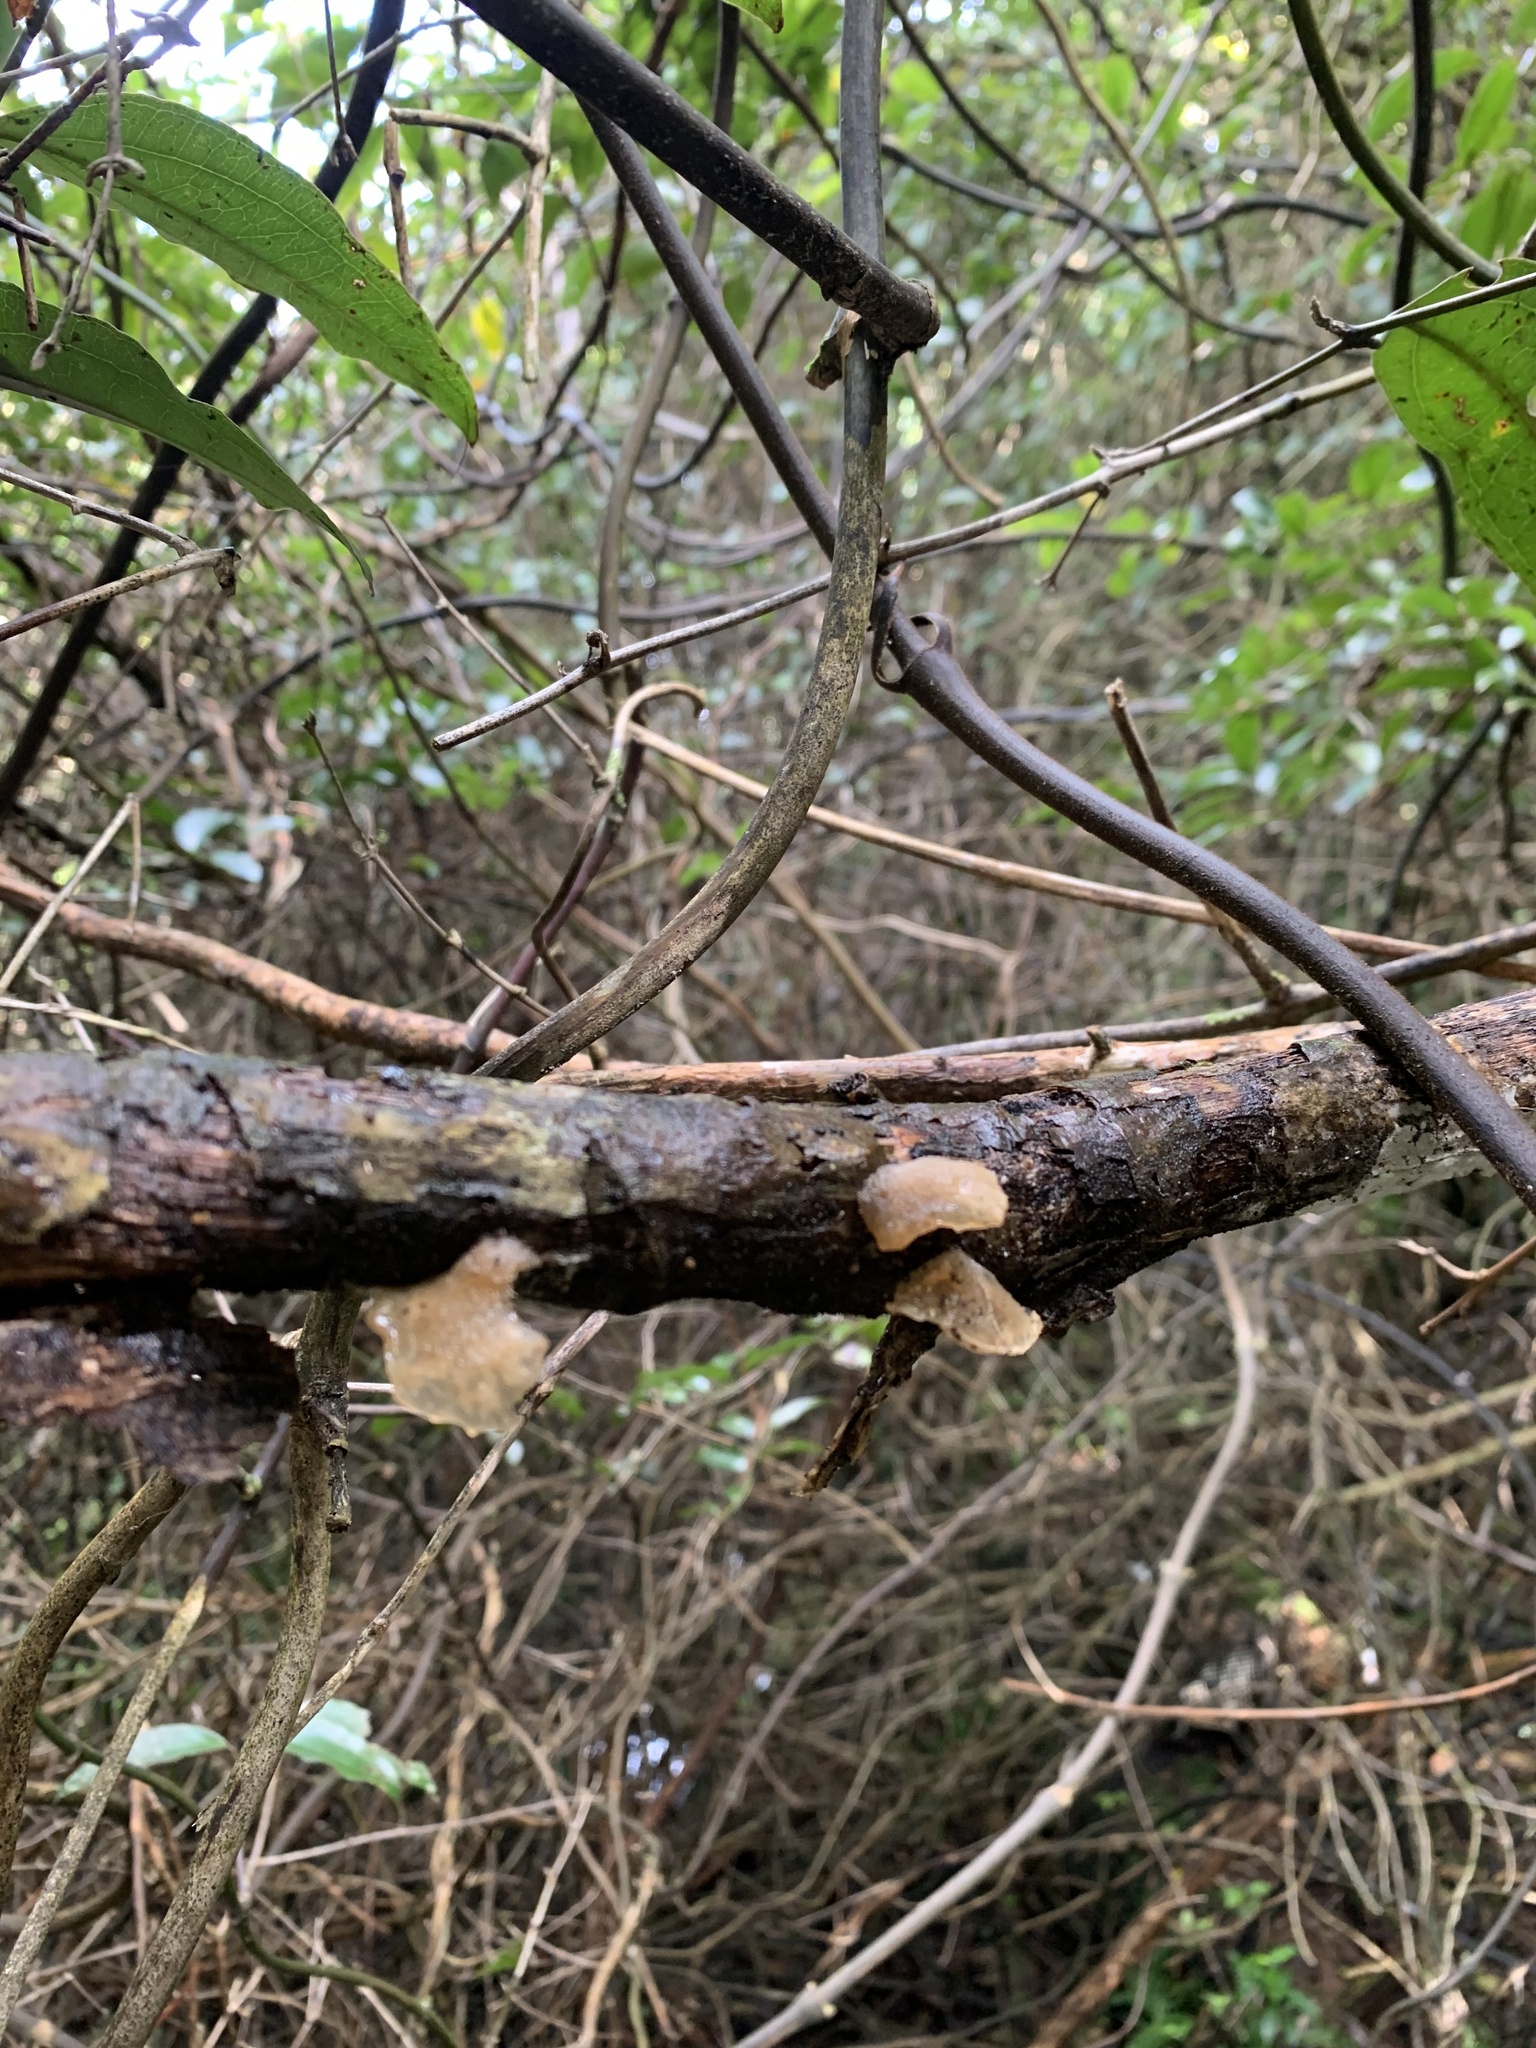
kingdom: Fungi
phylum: Basidiomycota
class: Agaricomycetes
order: Auriculariales
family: Auriculariaceae
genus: Auricularia
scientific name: Auricularia cornea
